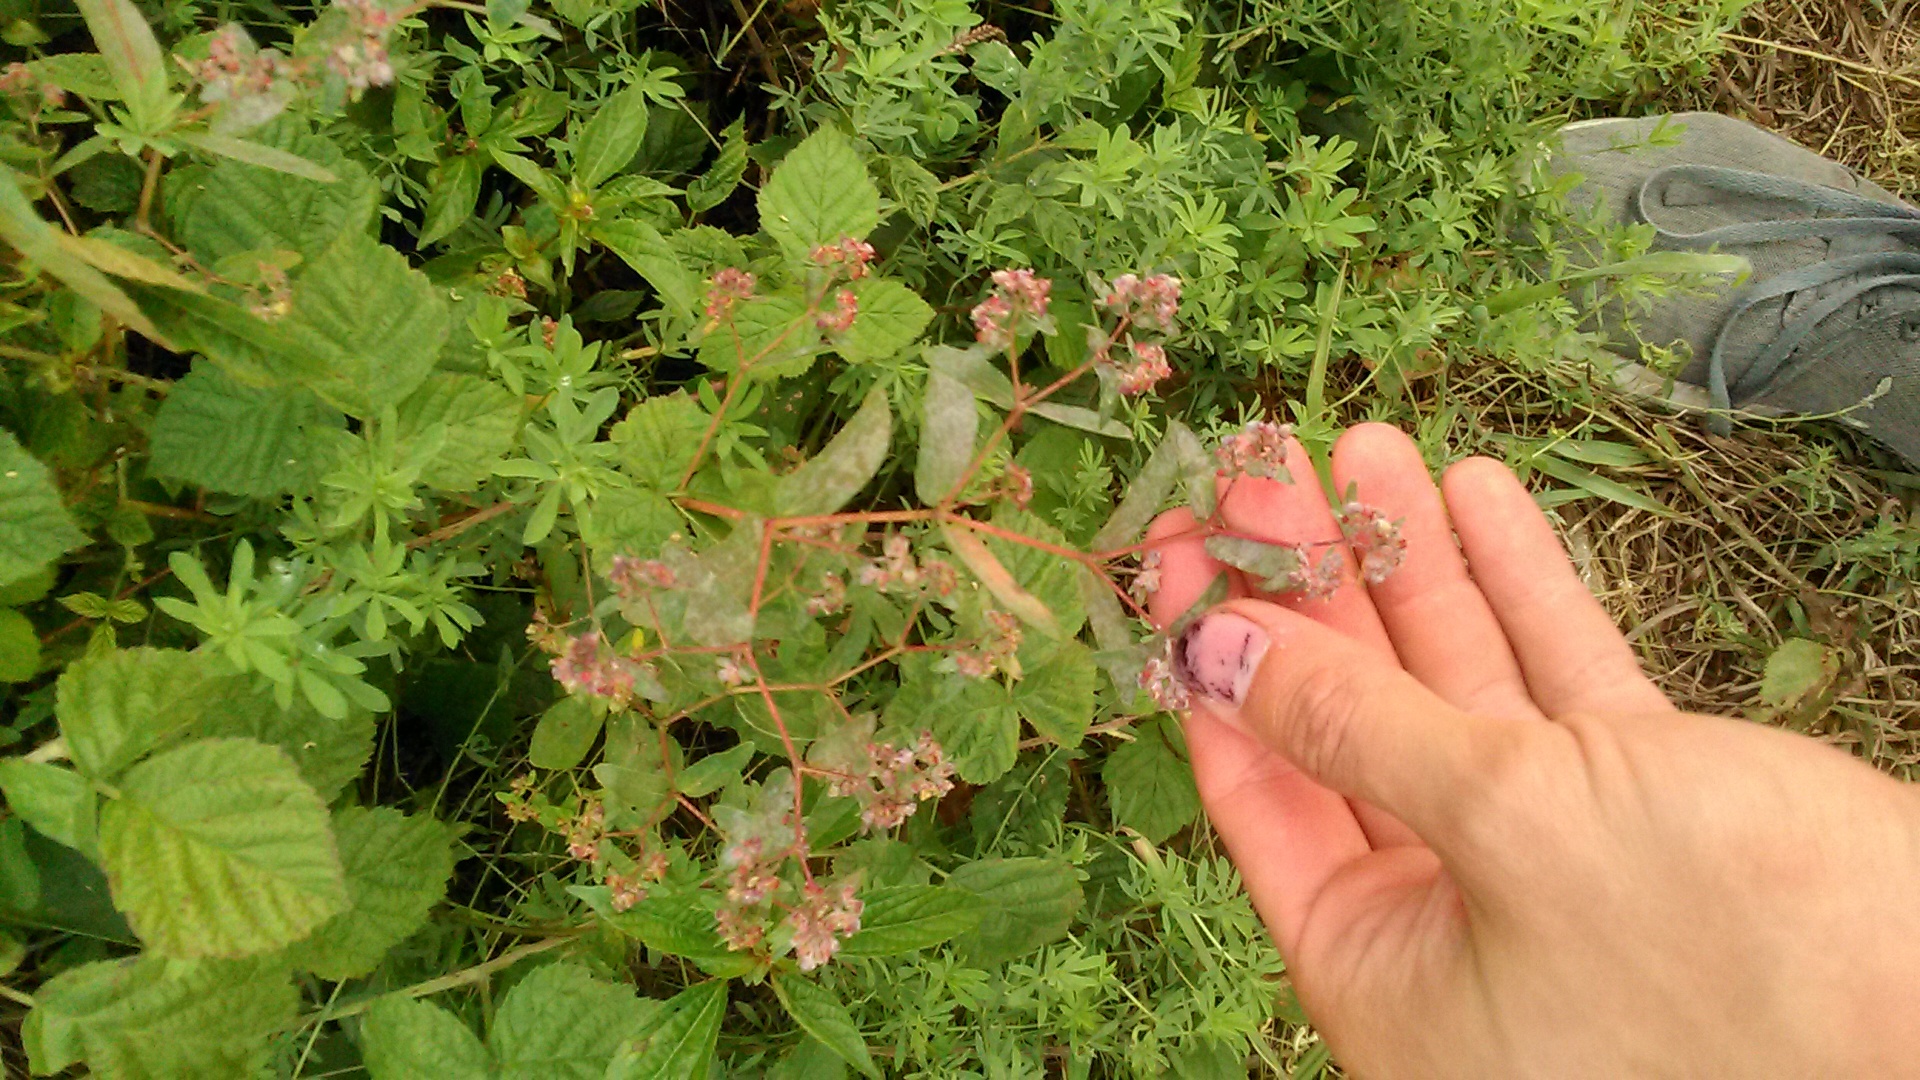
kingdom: Plantae
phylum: Tracheophyta
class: Magnoliopsida
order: Malpighiales
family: Euphorbiaceae
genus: Euphorbia
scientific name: Euphorbia nutans
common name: Eyebane
